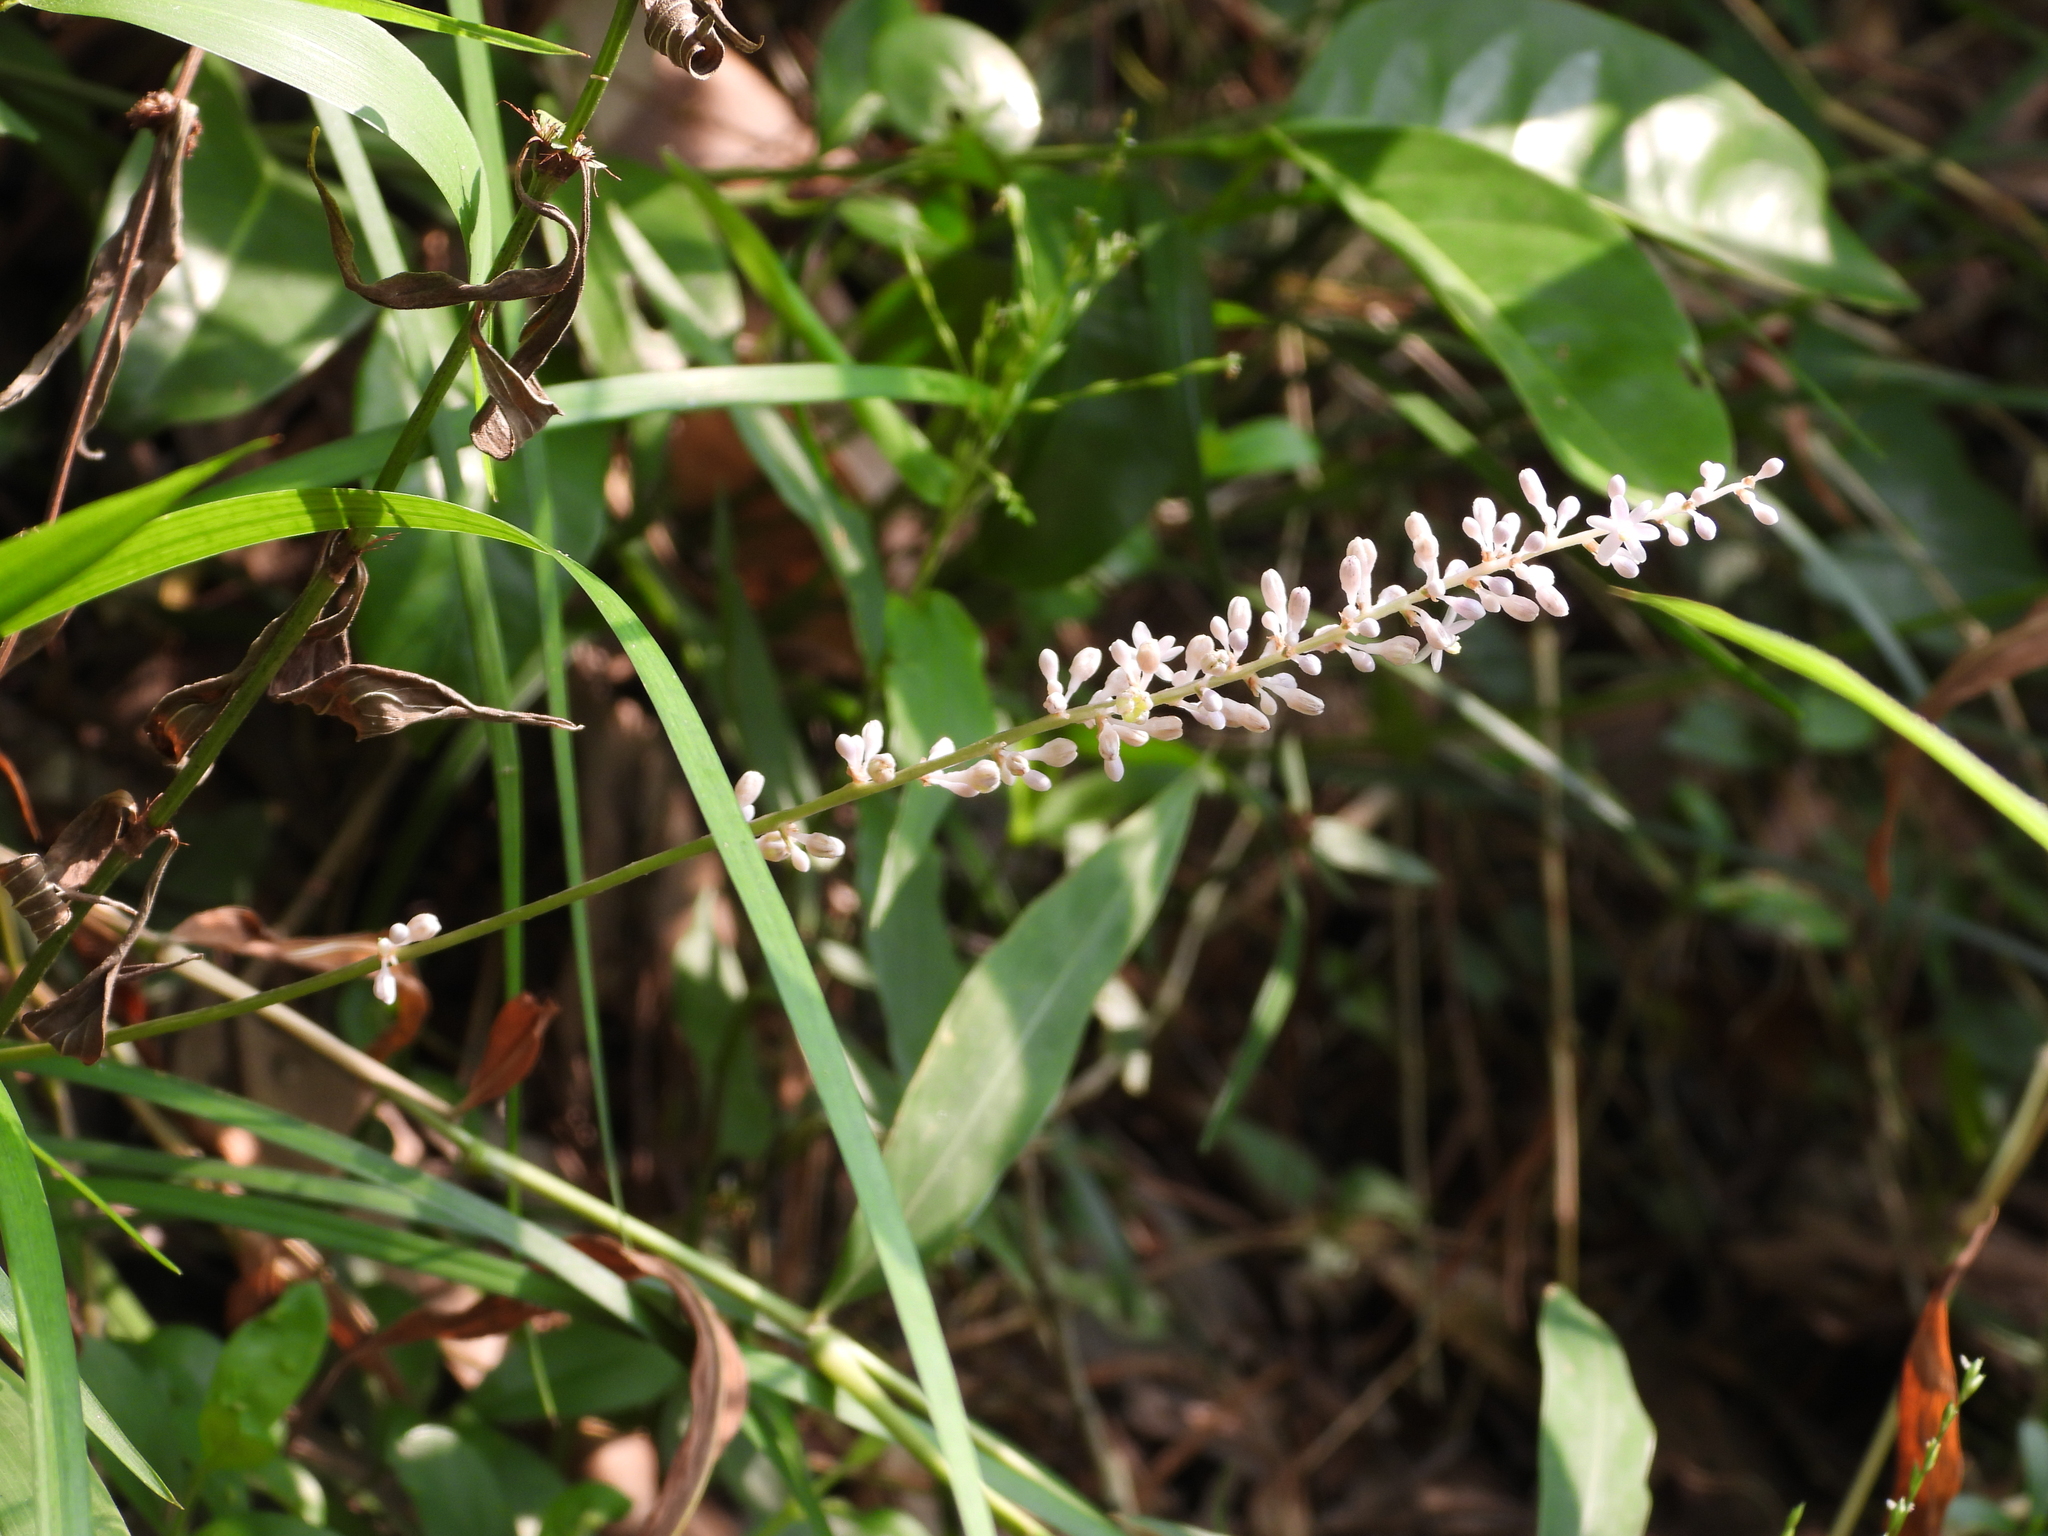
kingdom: Plantae
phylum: Tracheophyta
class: Liliopsida
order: Asparagales
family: Asparagaceae
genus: Liriope
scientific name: Liriope spicata
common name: Creeping liriope
